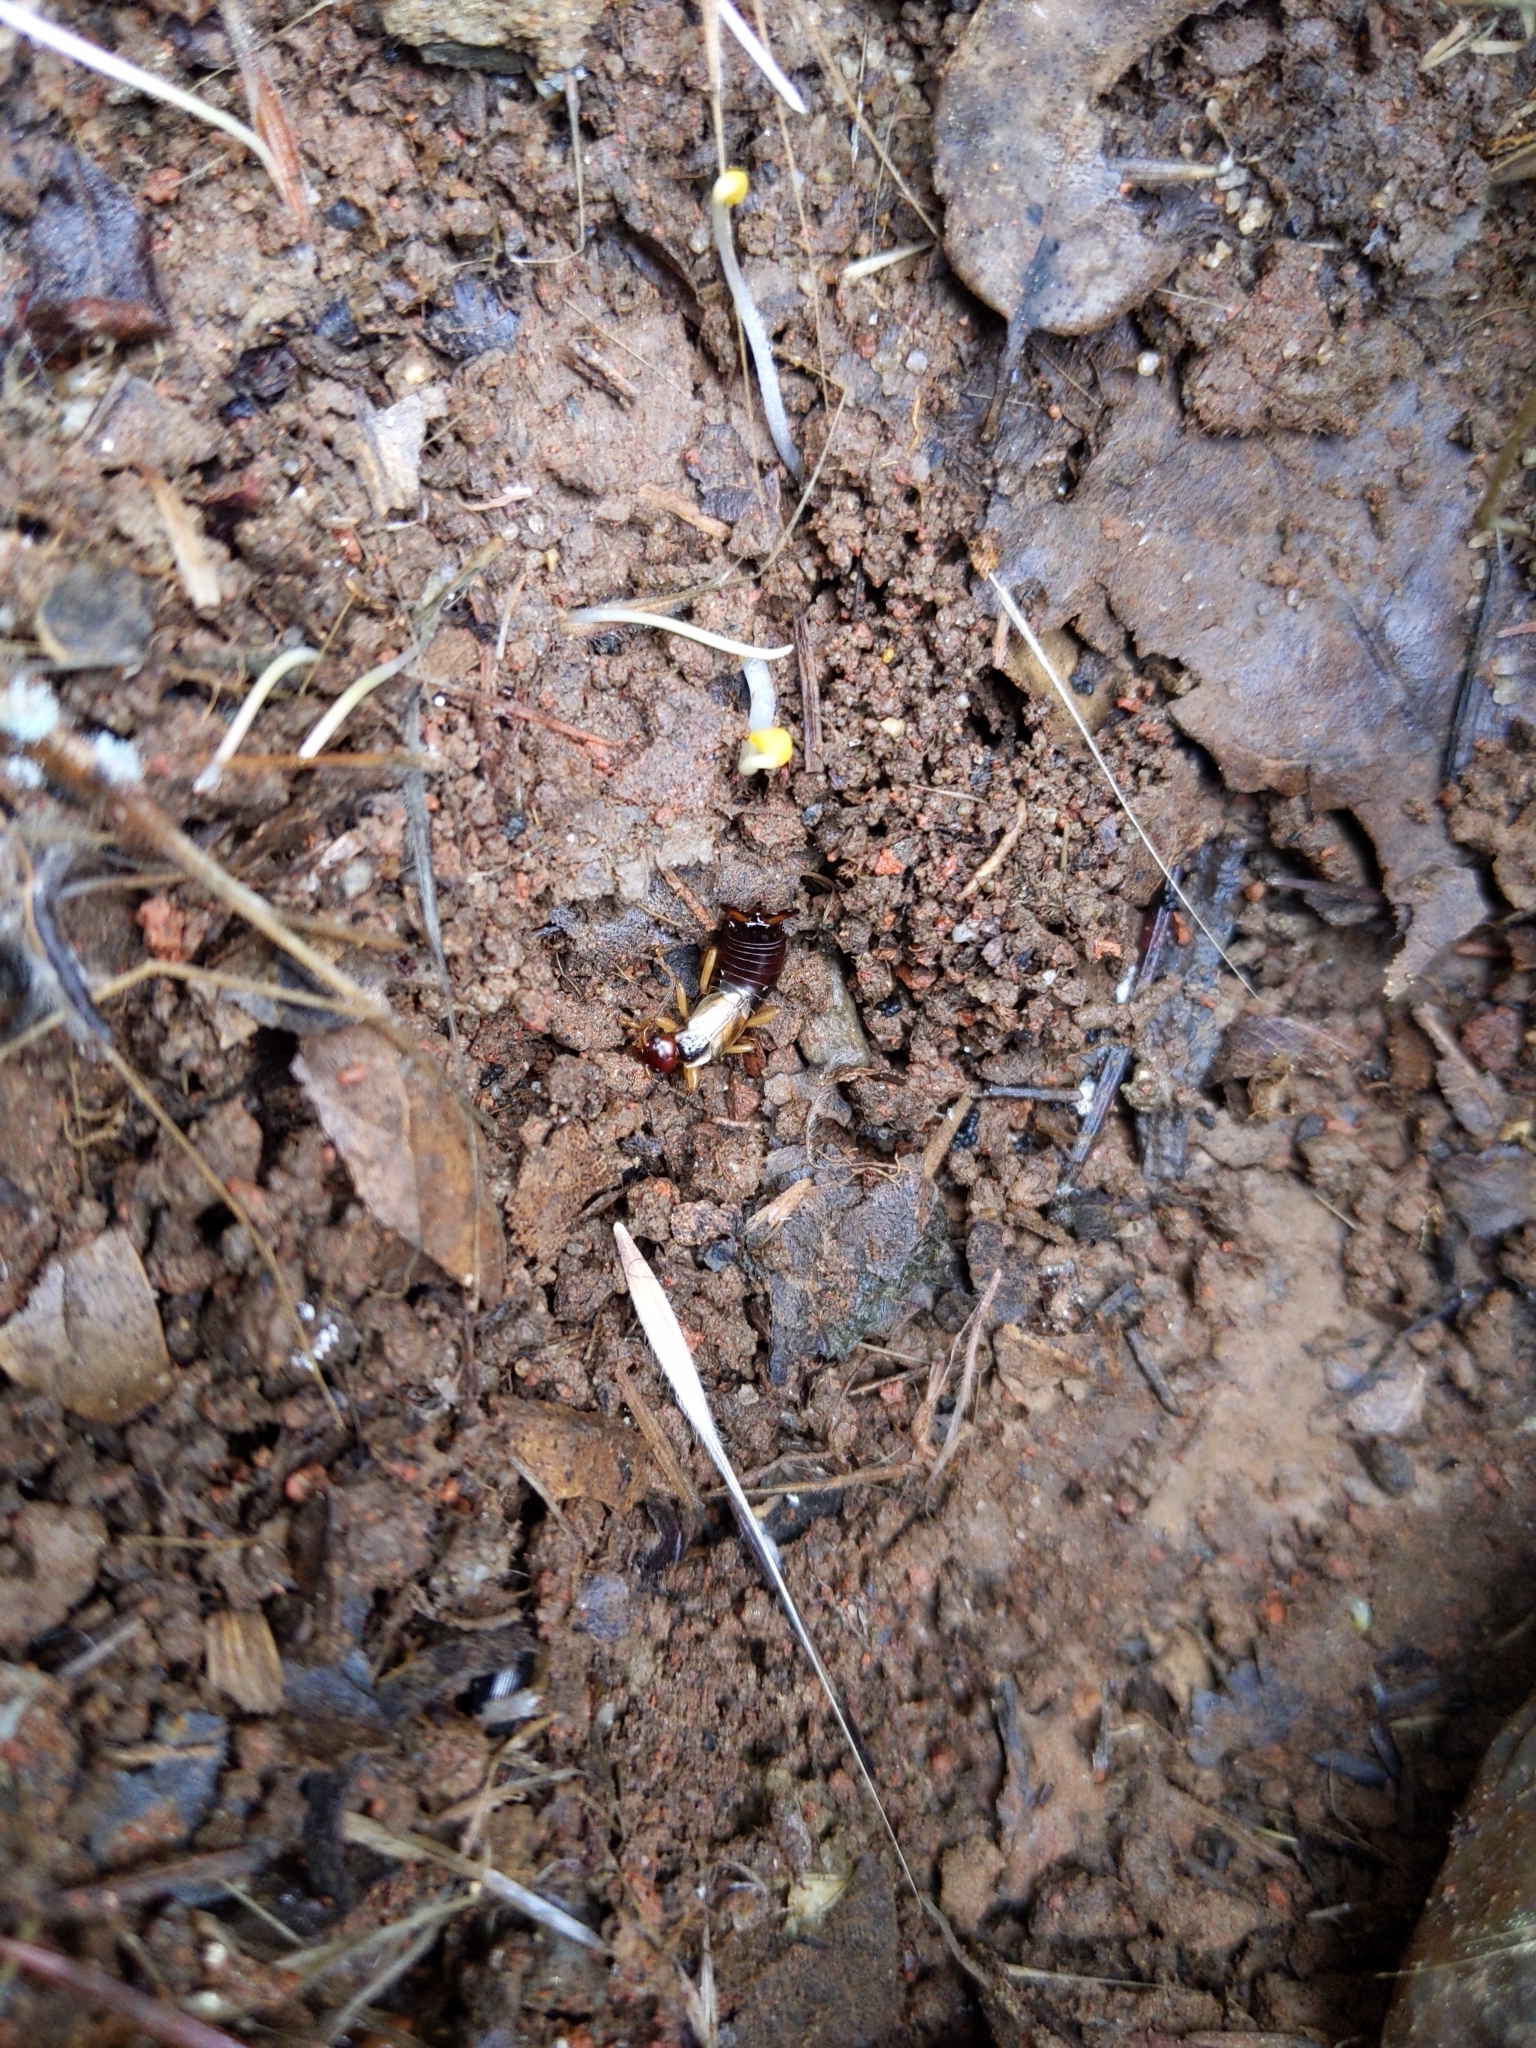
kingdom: Animalia
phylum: Arthropoda
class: Insecta
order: Dermaptera
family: Forficulidae
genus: Forficula
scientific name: Forficula
